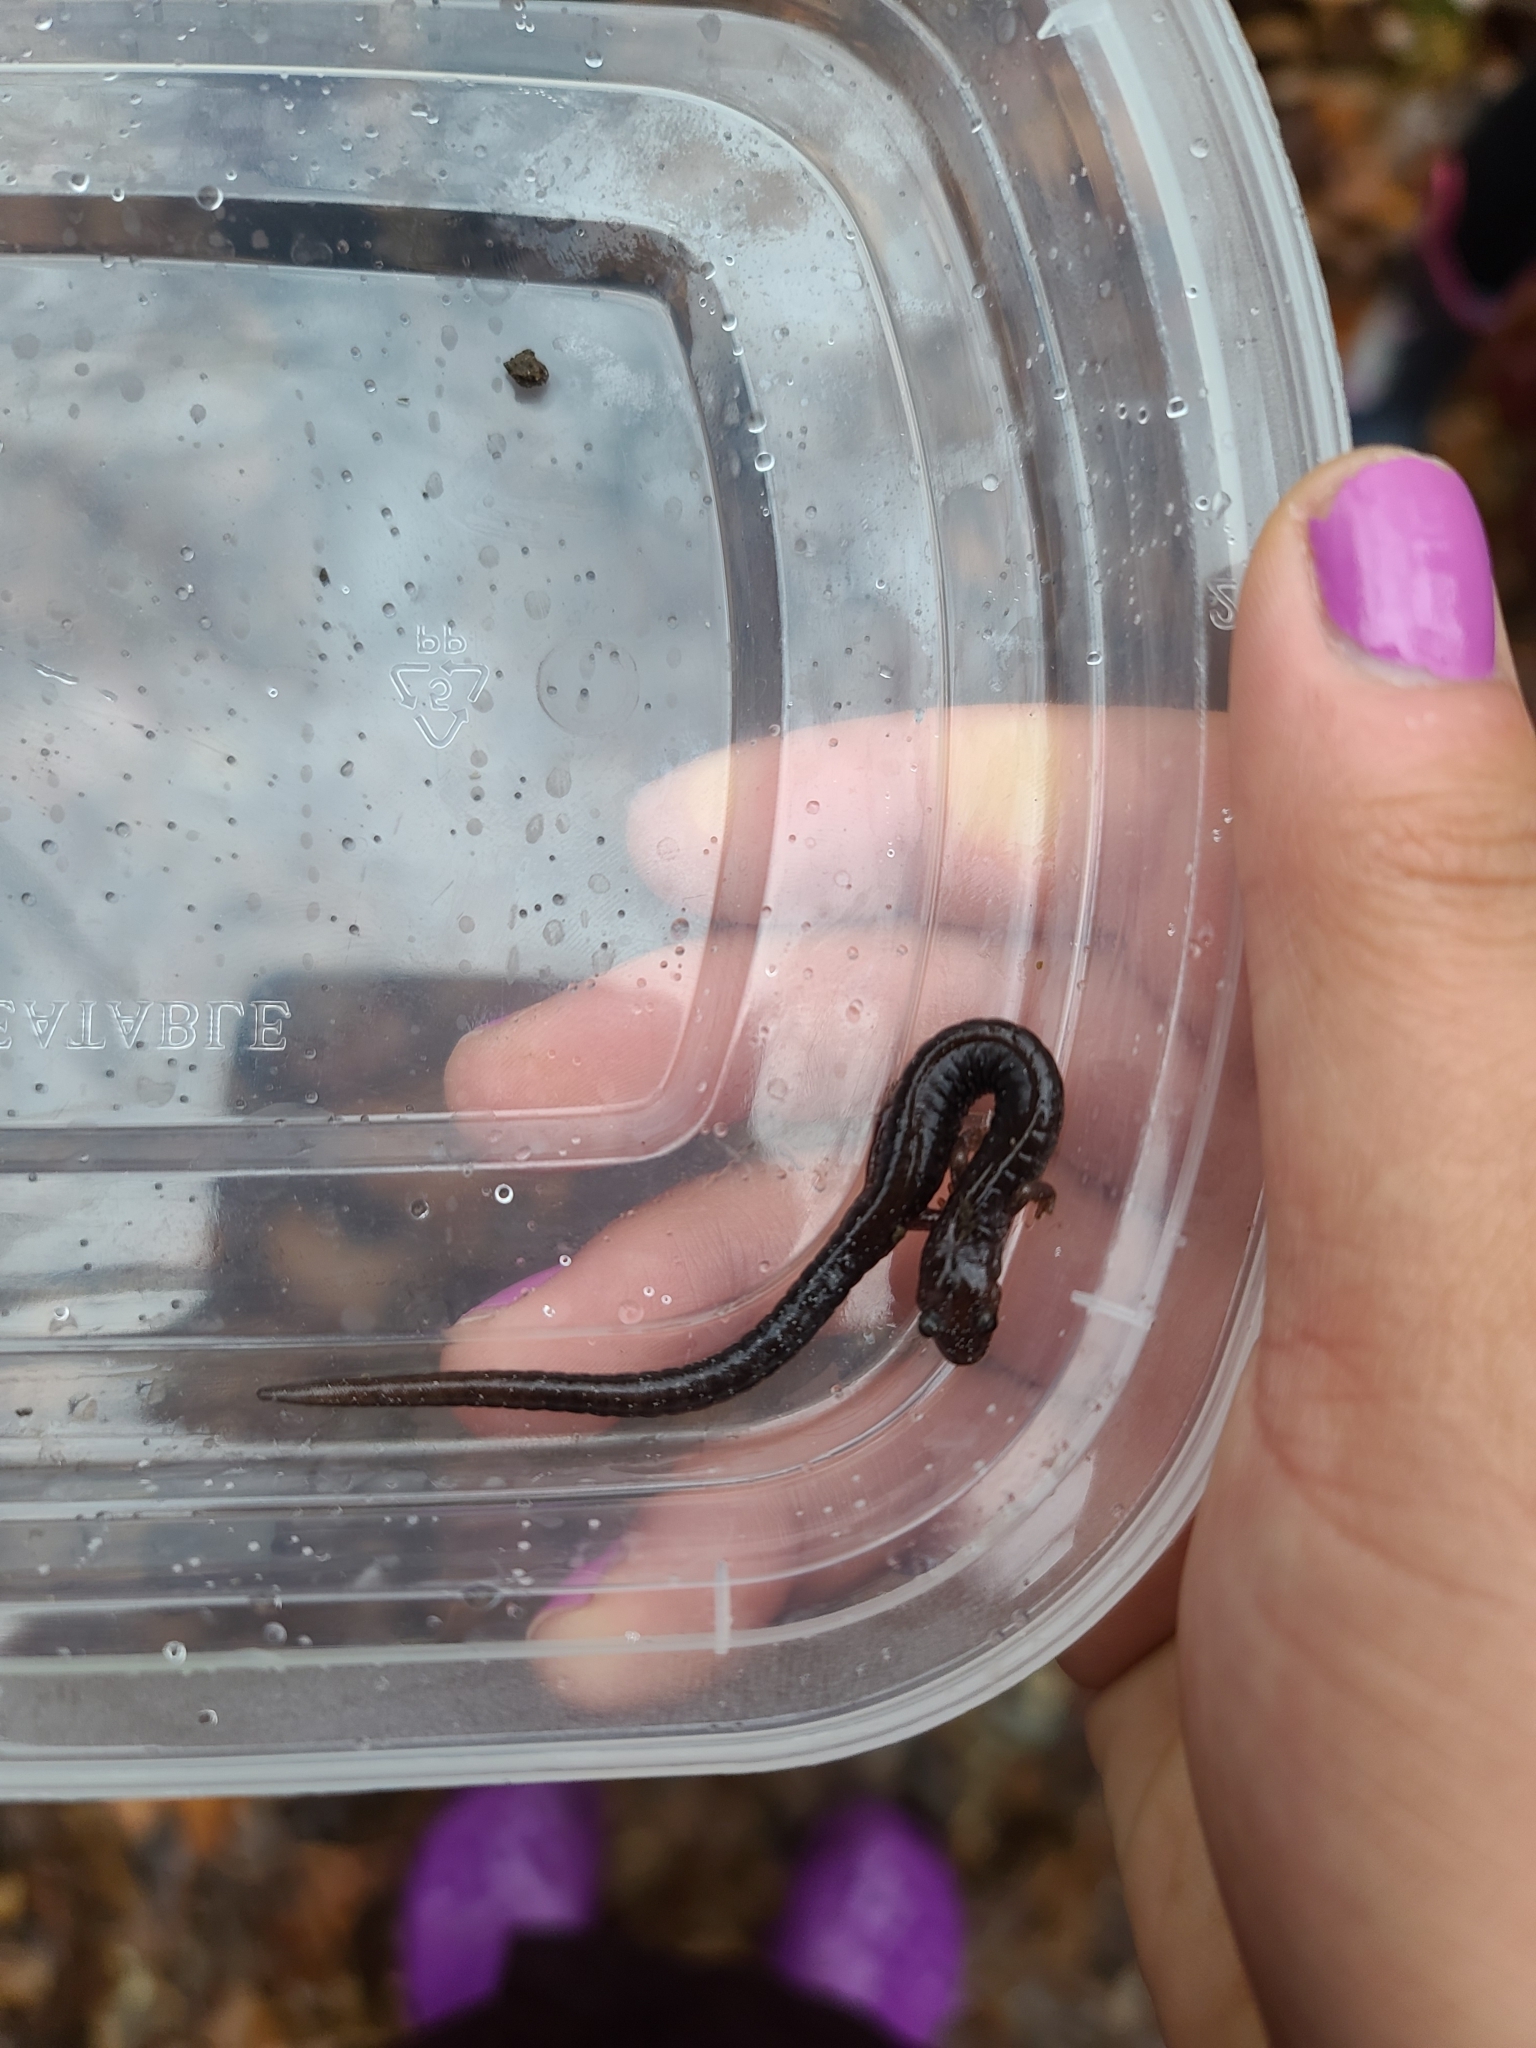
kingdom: Animalia
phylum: Chordata
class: Amphibia
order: Caudata
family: Plethodontidae
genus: Plethodon
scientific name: Plethodon cinereus
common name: Redback salamander
